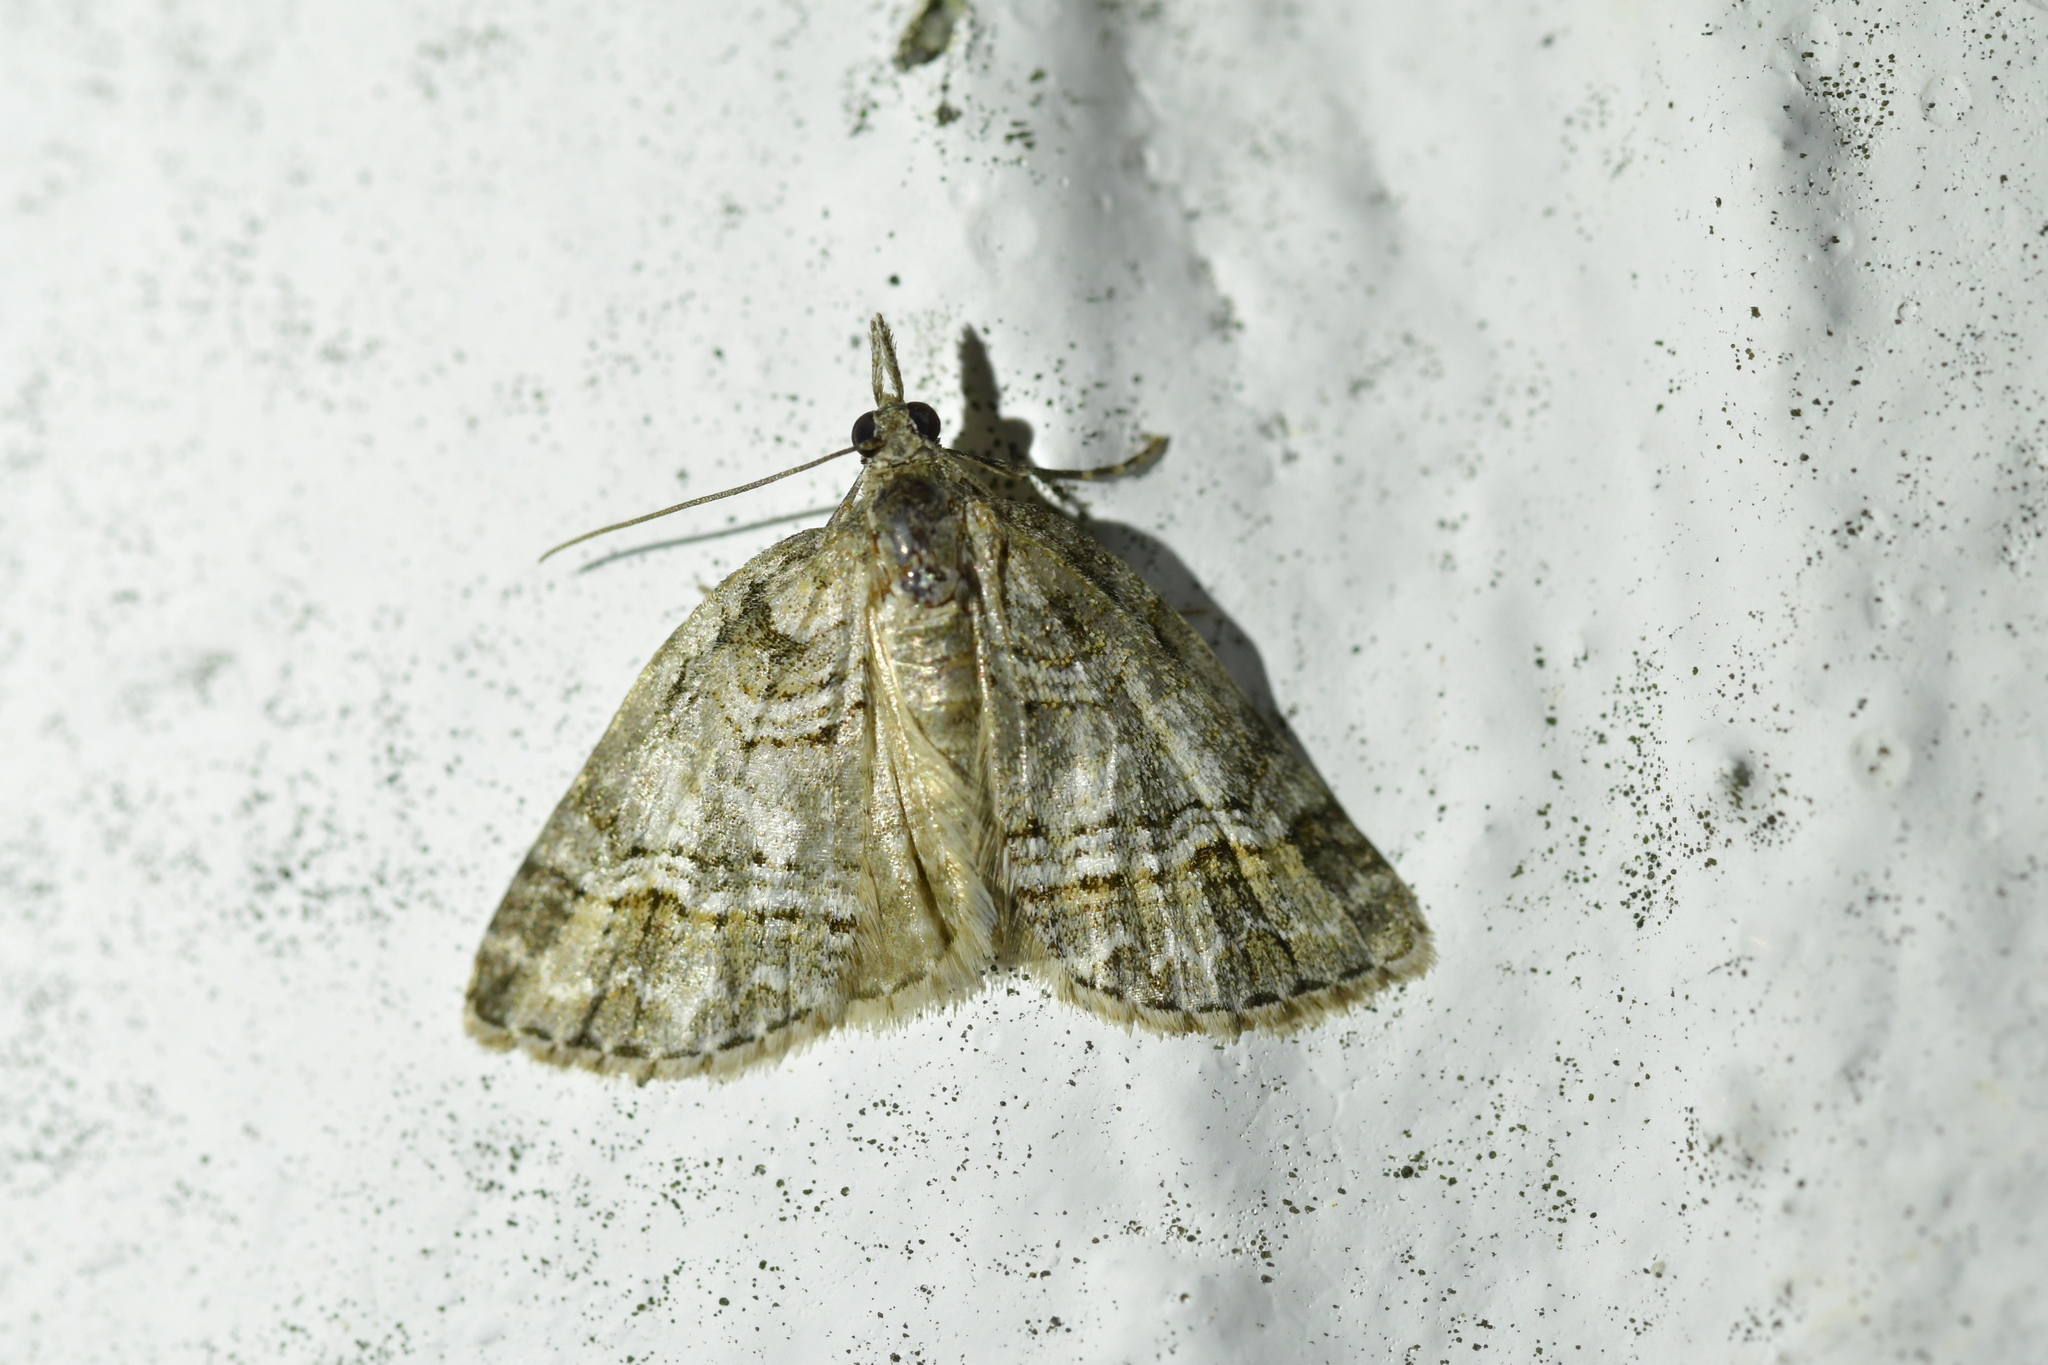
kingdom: Animalia
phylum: Arthropoda
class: Insecta
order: Lepidoptera
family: Geometridae
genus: Microdes
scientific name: Microdes quadristrigata
